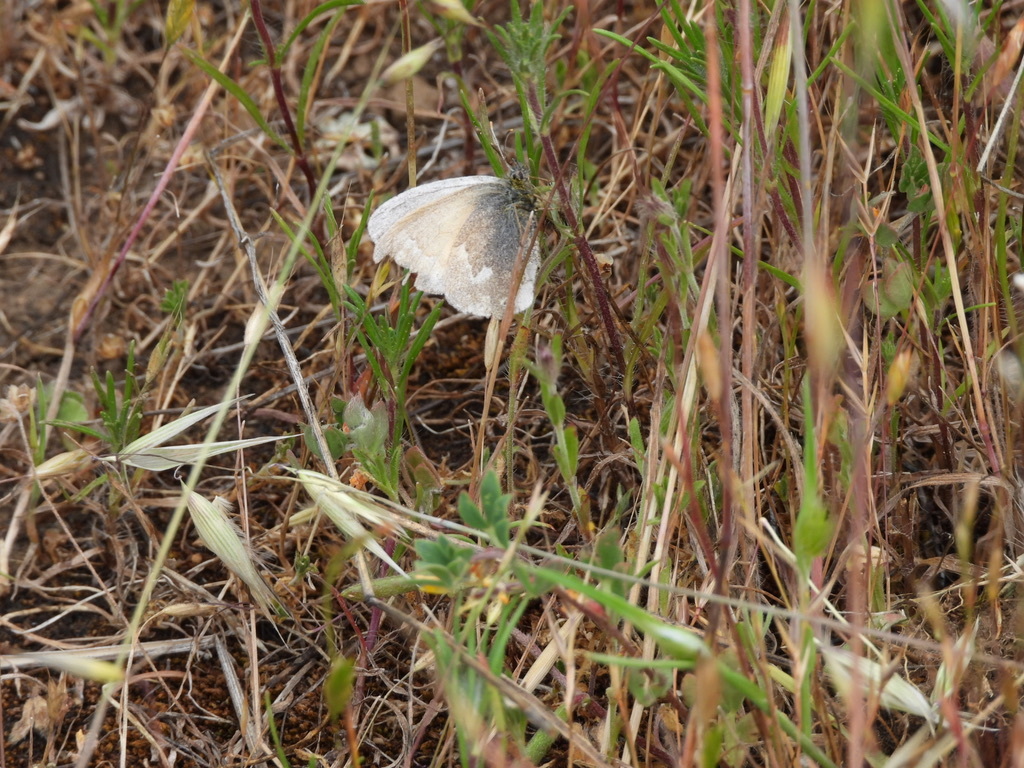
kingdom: Animalia
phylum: Arthropoda
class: Insecta
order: Lepidoptera
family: Nymphalidae
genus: Coenonympha
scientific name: Coenonympha california
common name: Common ringlet
